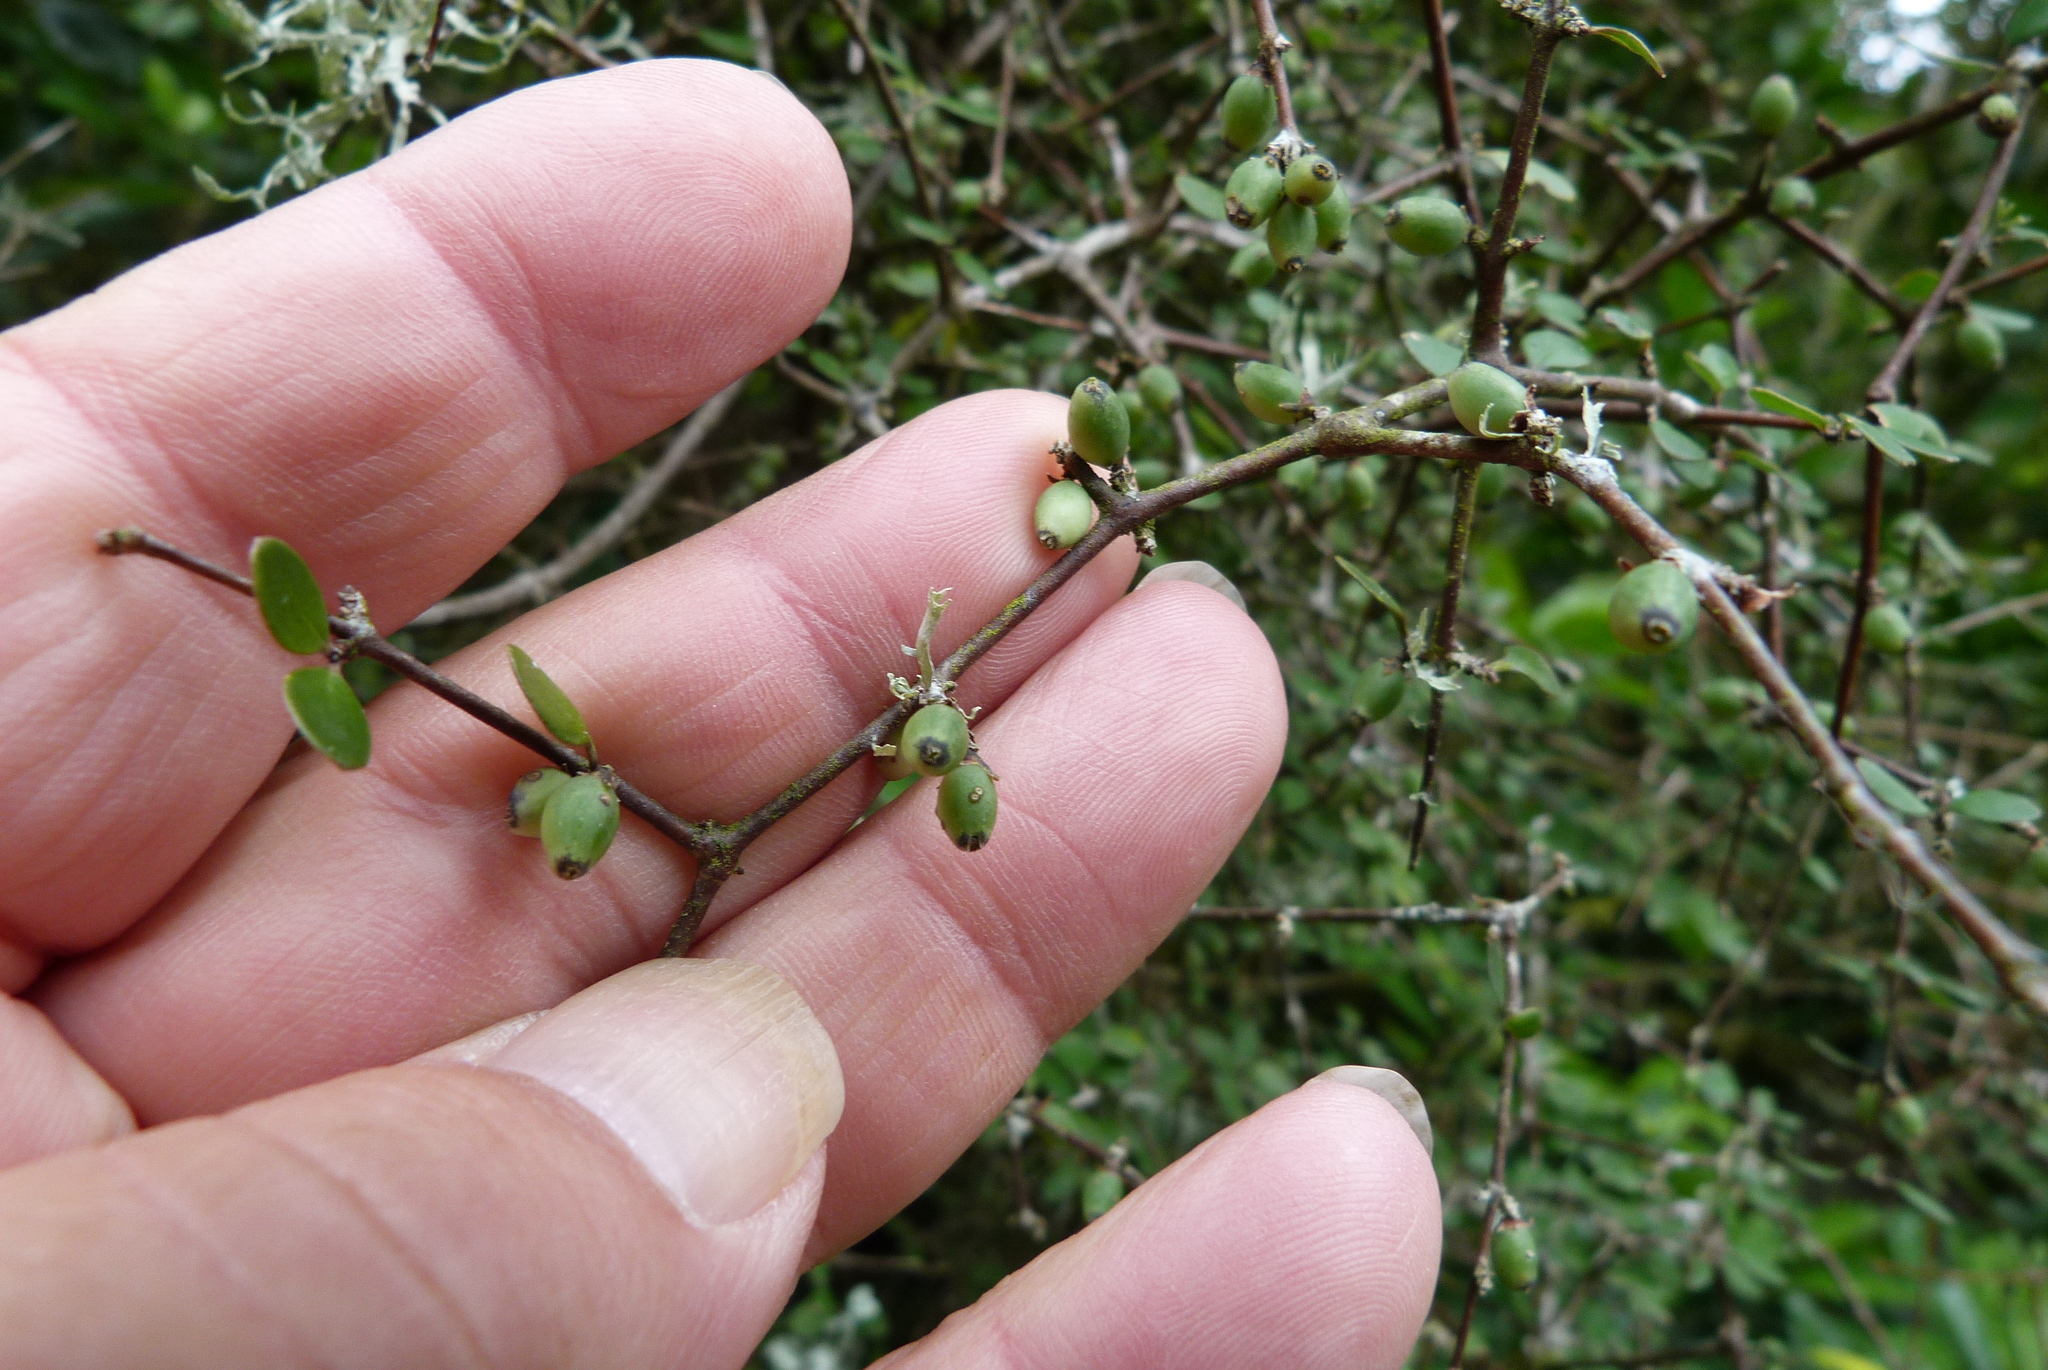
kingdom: Plantae
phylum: Tracheophyta
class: Magnoliopsida
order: Gentianales
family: Rubiaceae
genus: Coprosma
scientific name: Coprosma crassifolia
